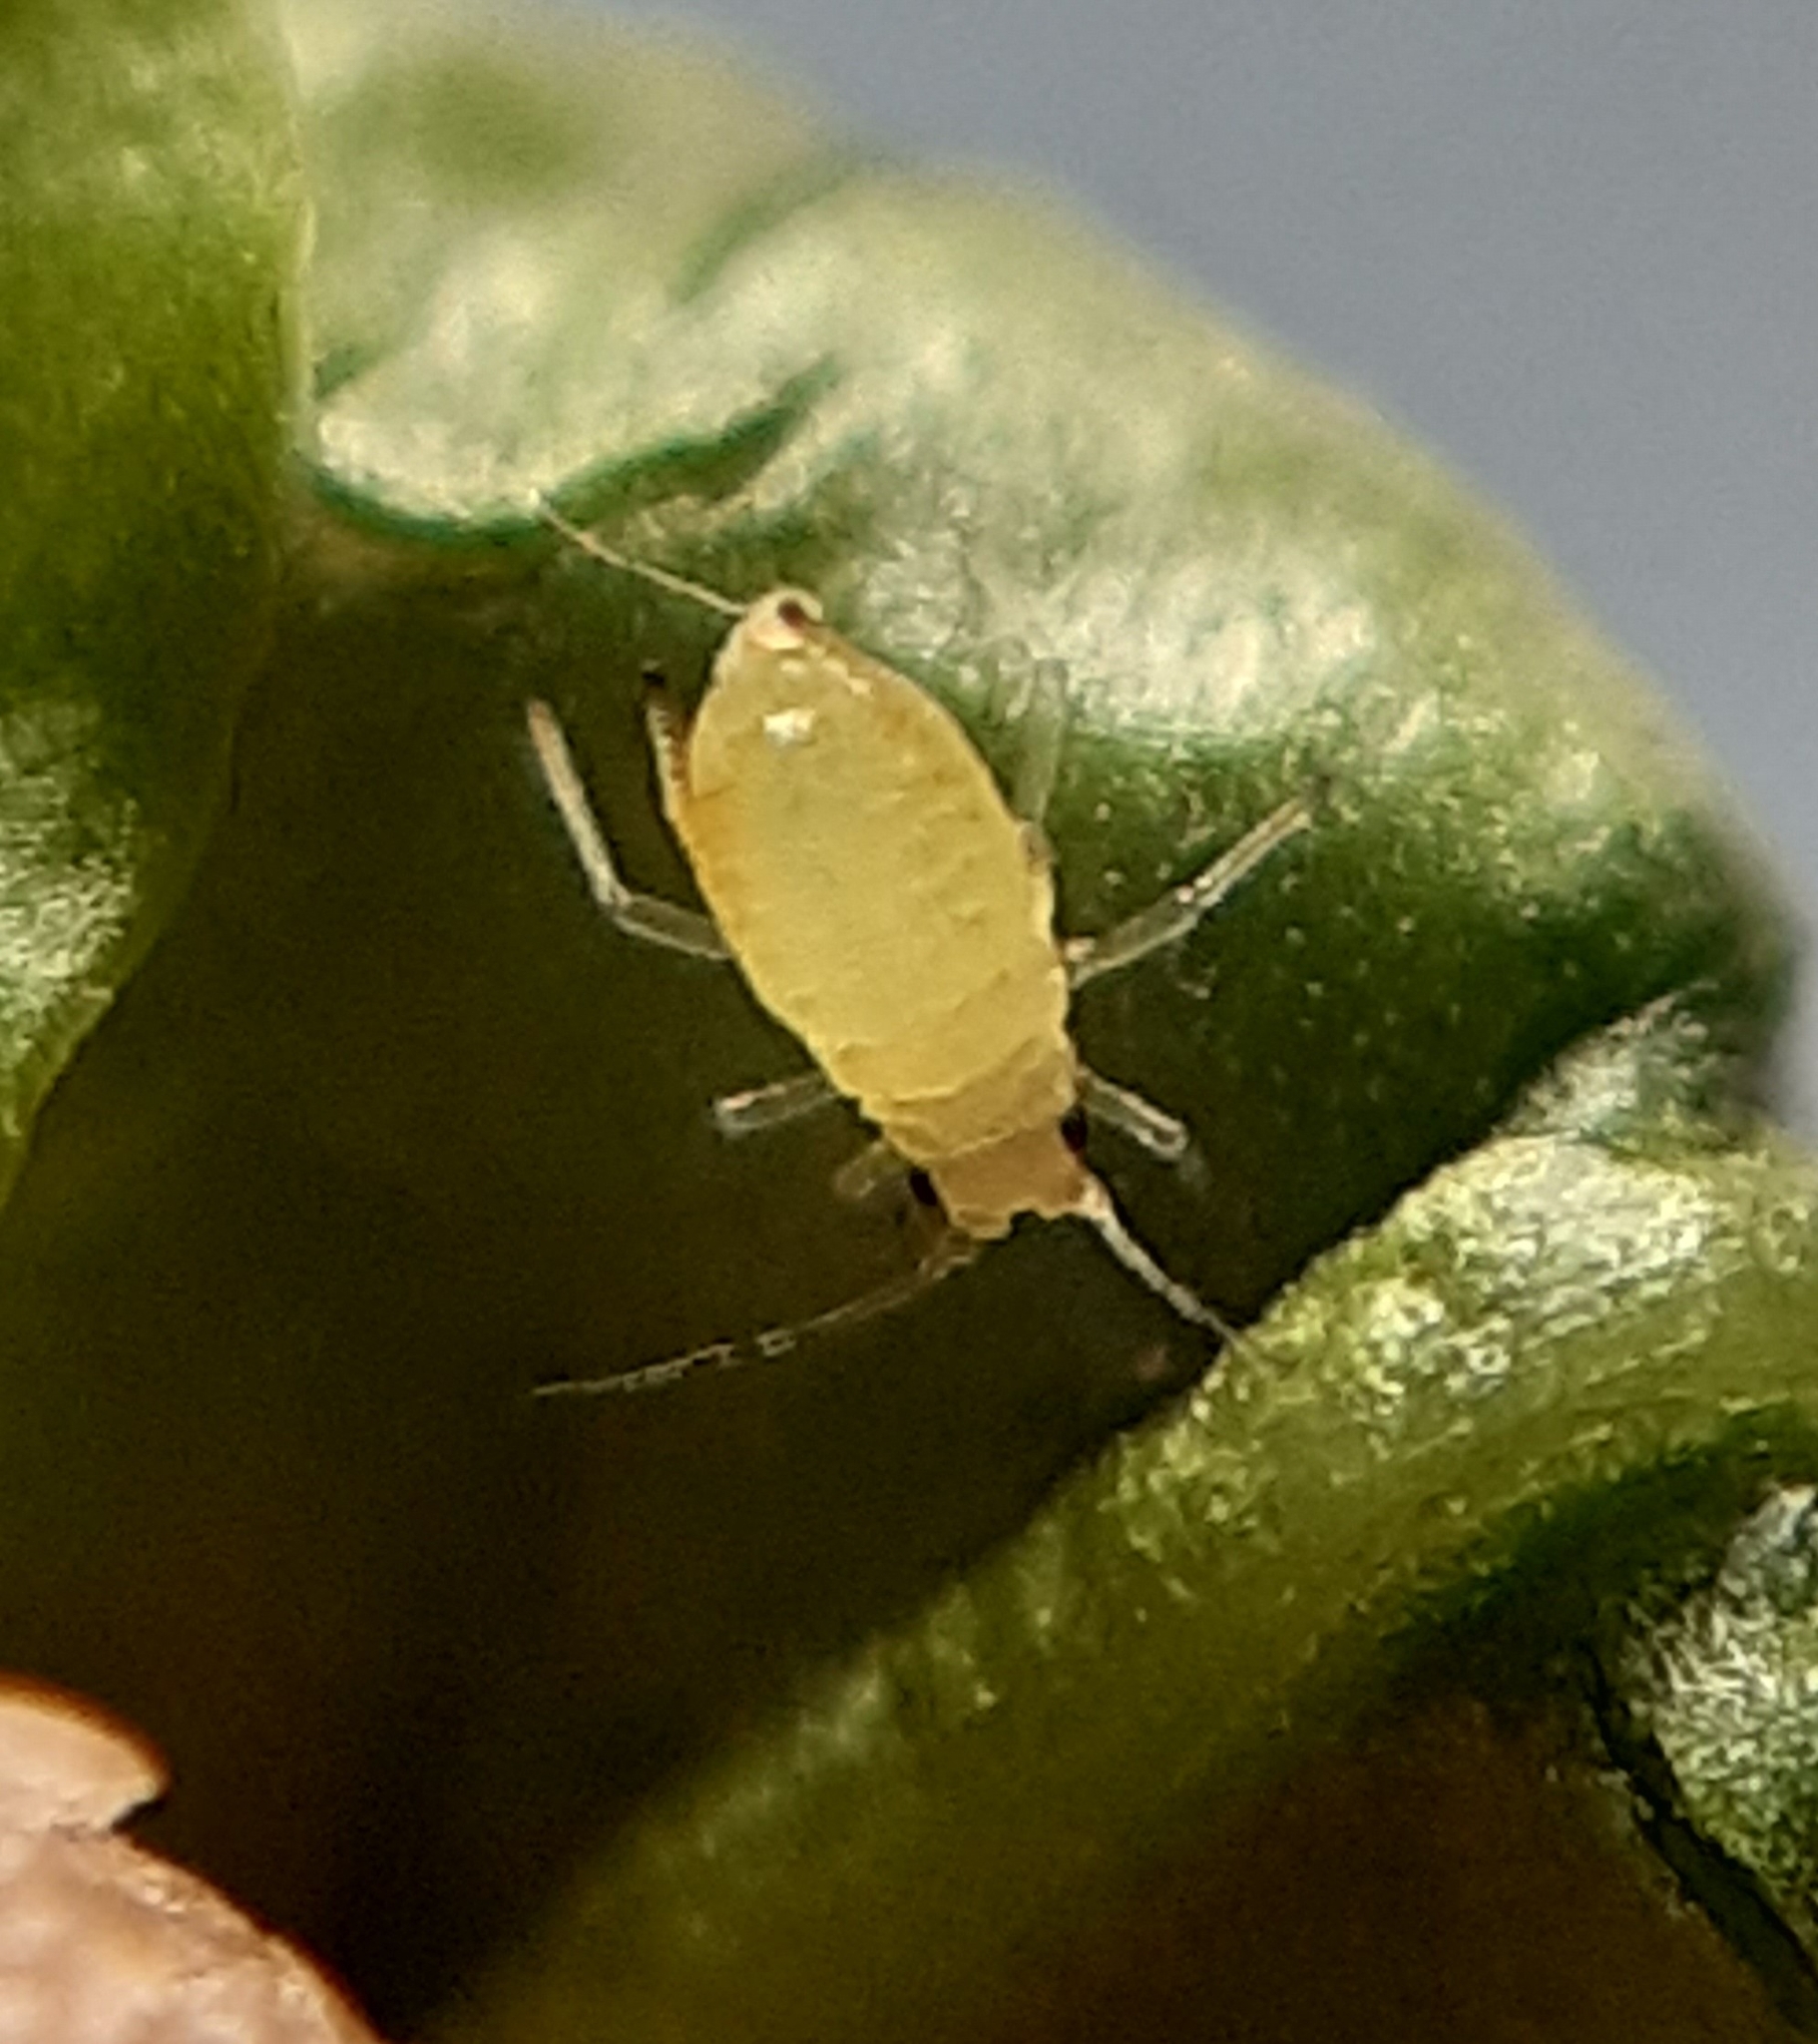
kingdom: Animalia
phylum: Arthropoda
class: Insecta
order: Hemiptera
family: Aphididae
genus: Myzus
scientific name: Myzus ligustri
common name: Privet aphid
